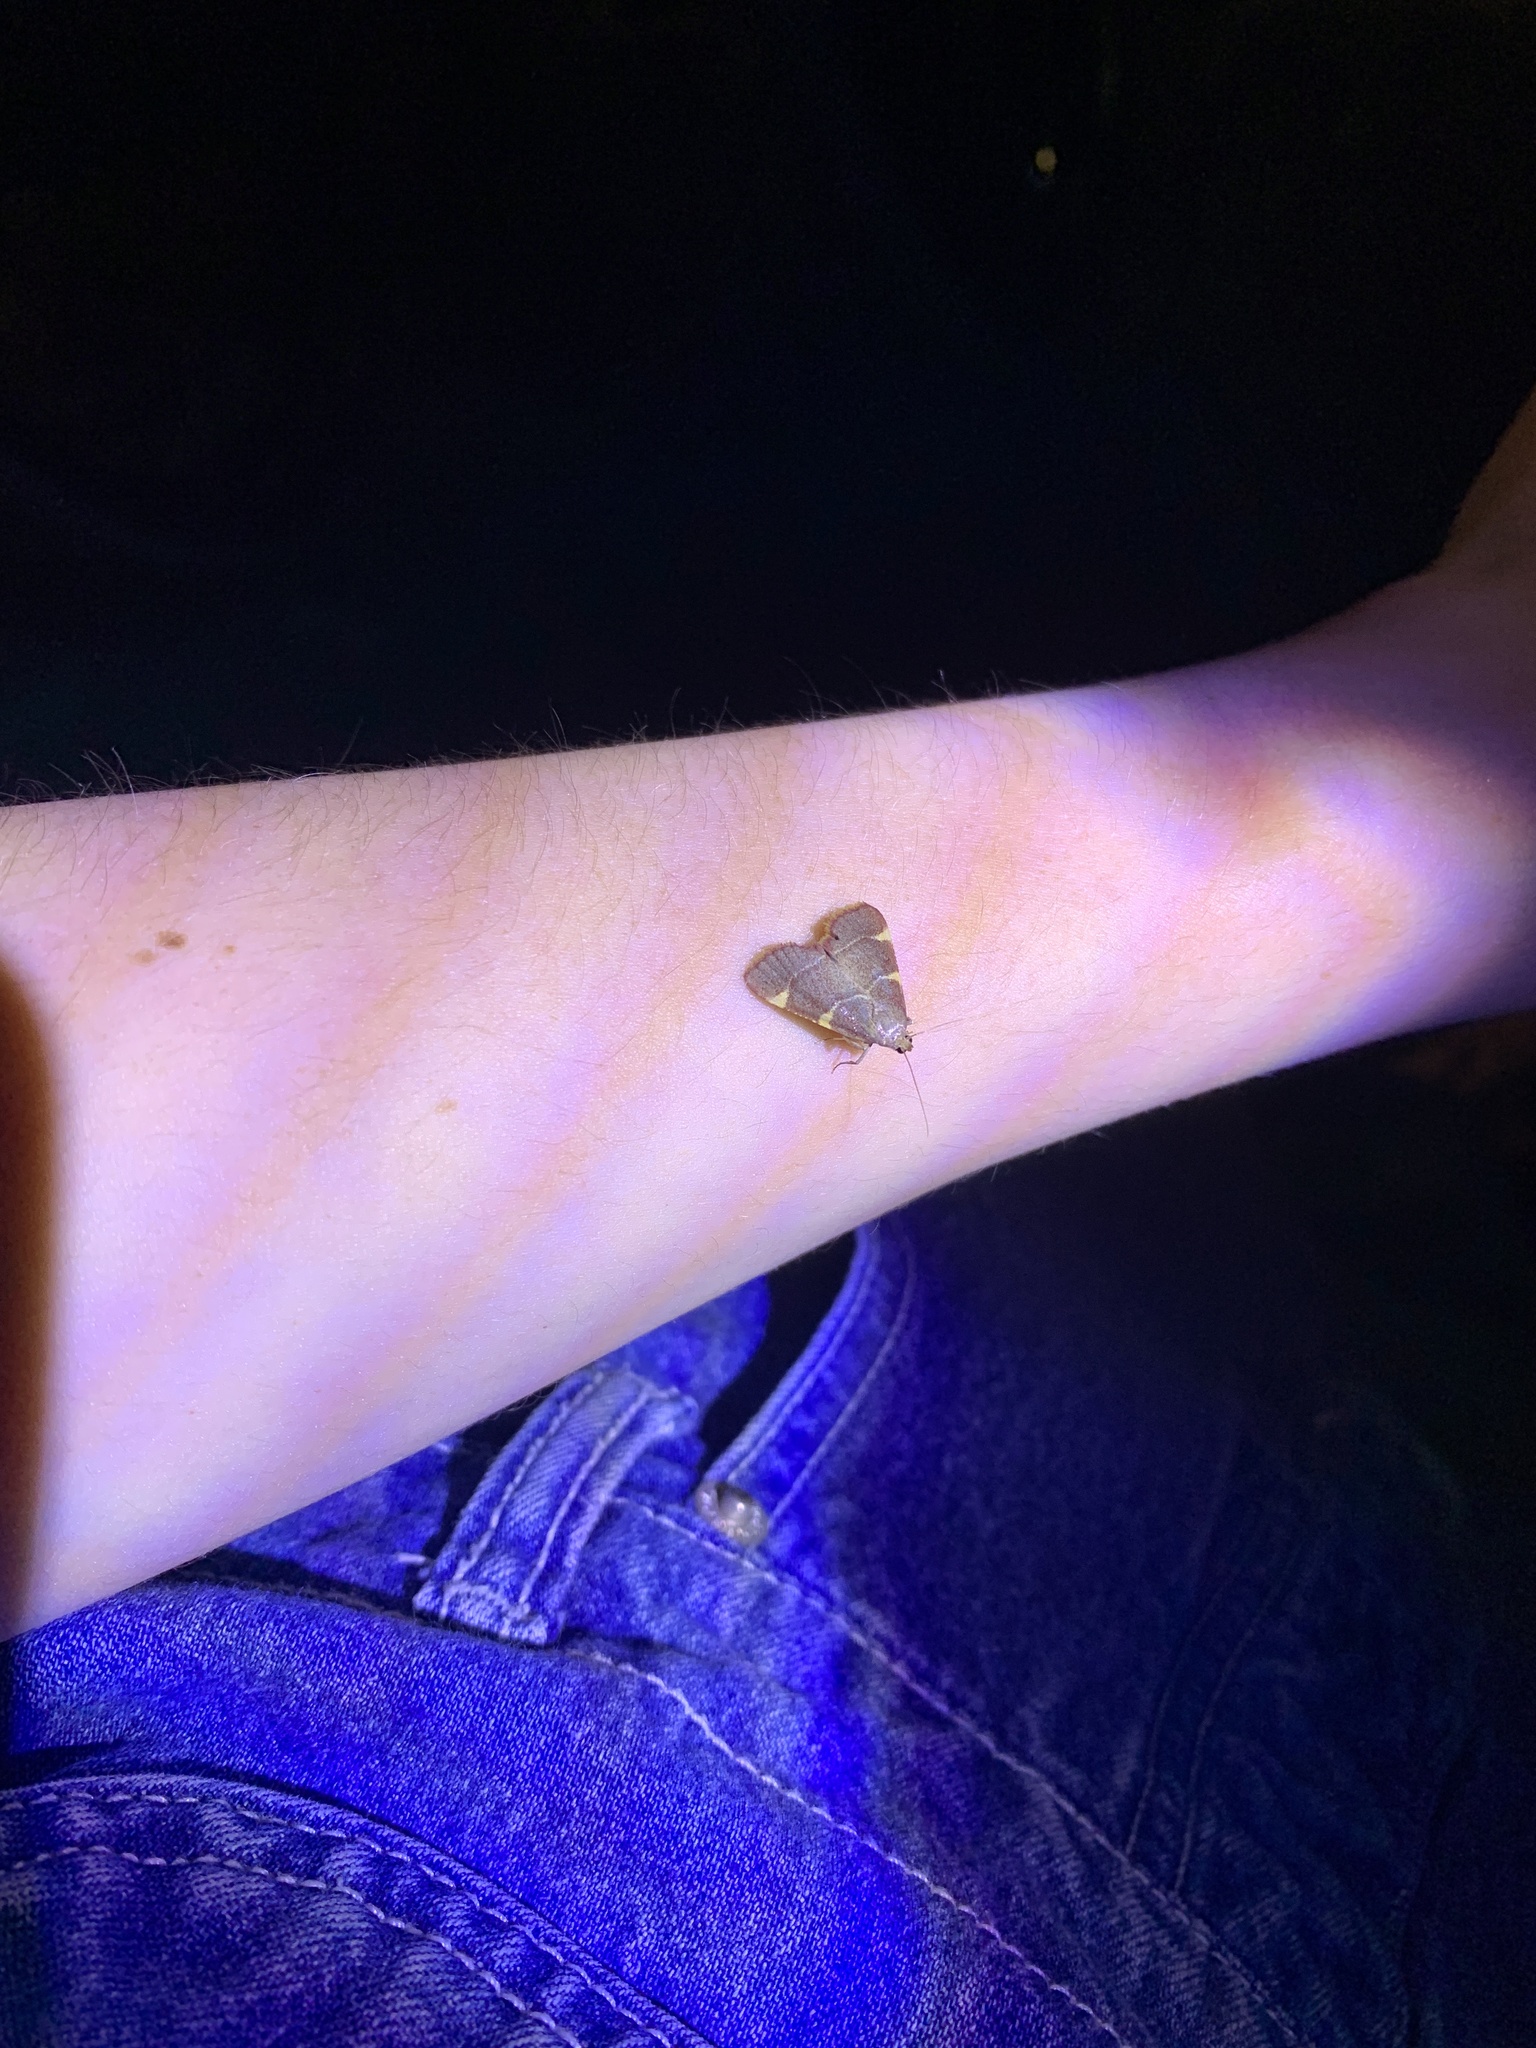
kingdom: Animalia
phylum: Arthropoda
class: Insecta
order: Lepidoptera
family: Pyralidae
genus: Hypsopygia
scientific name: Hypsopygia olinalis
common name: Yellow-fringed dolichomia moth
